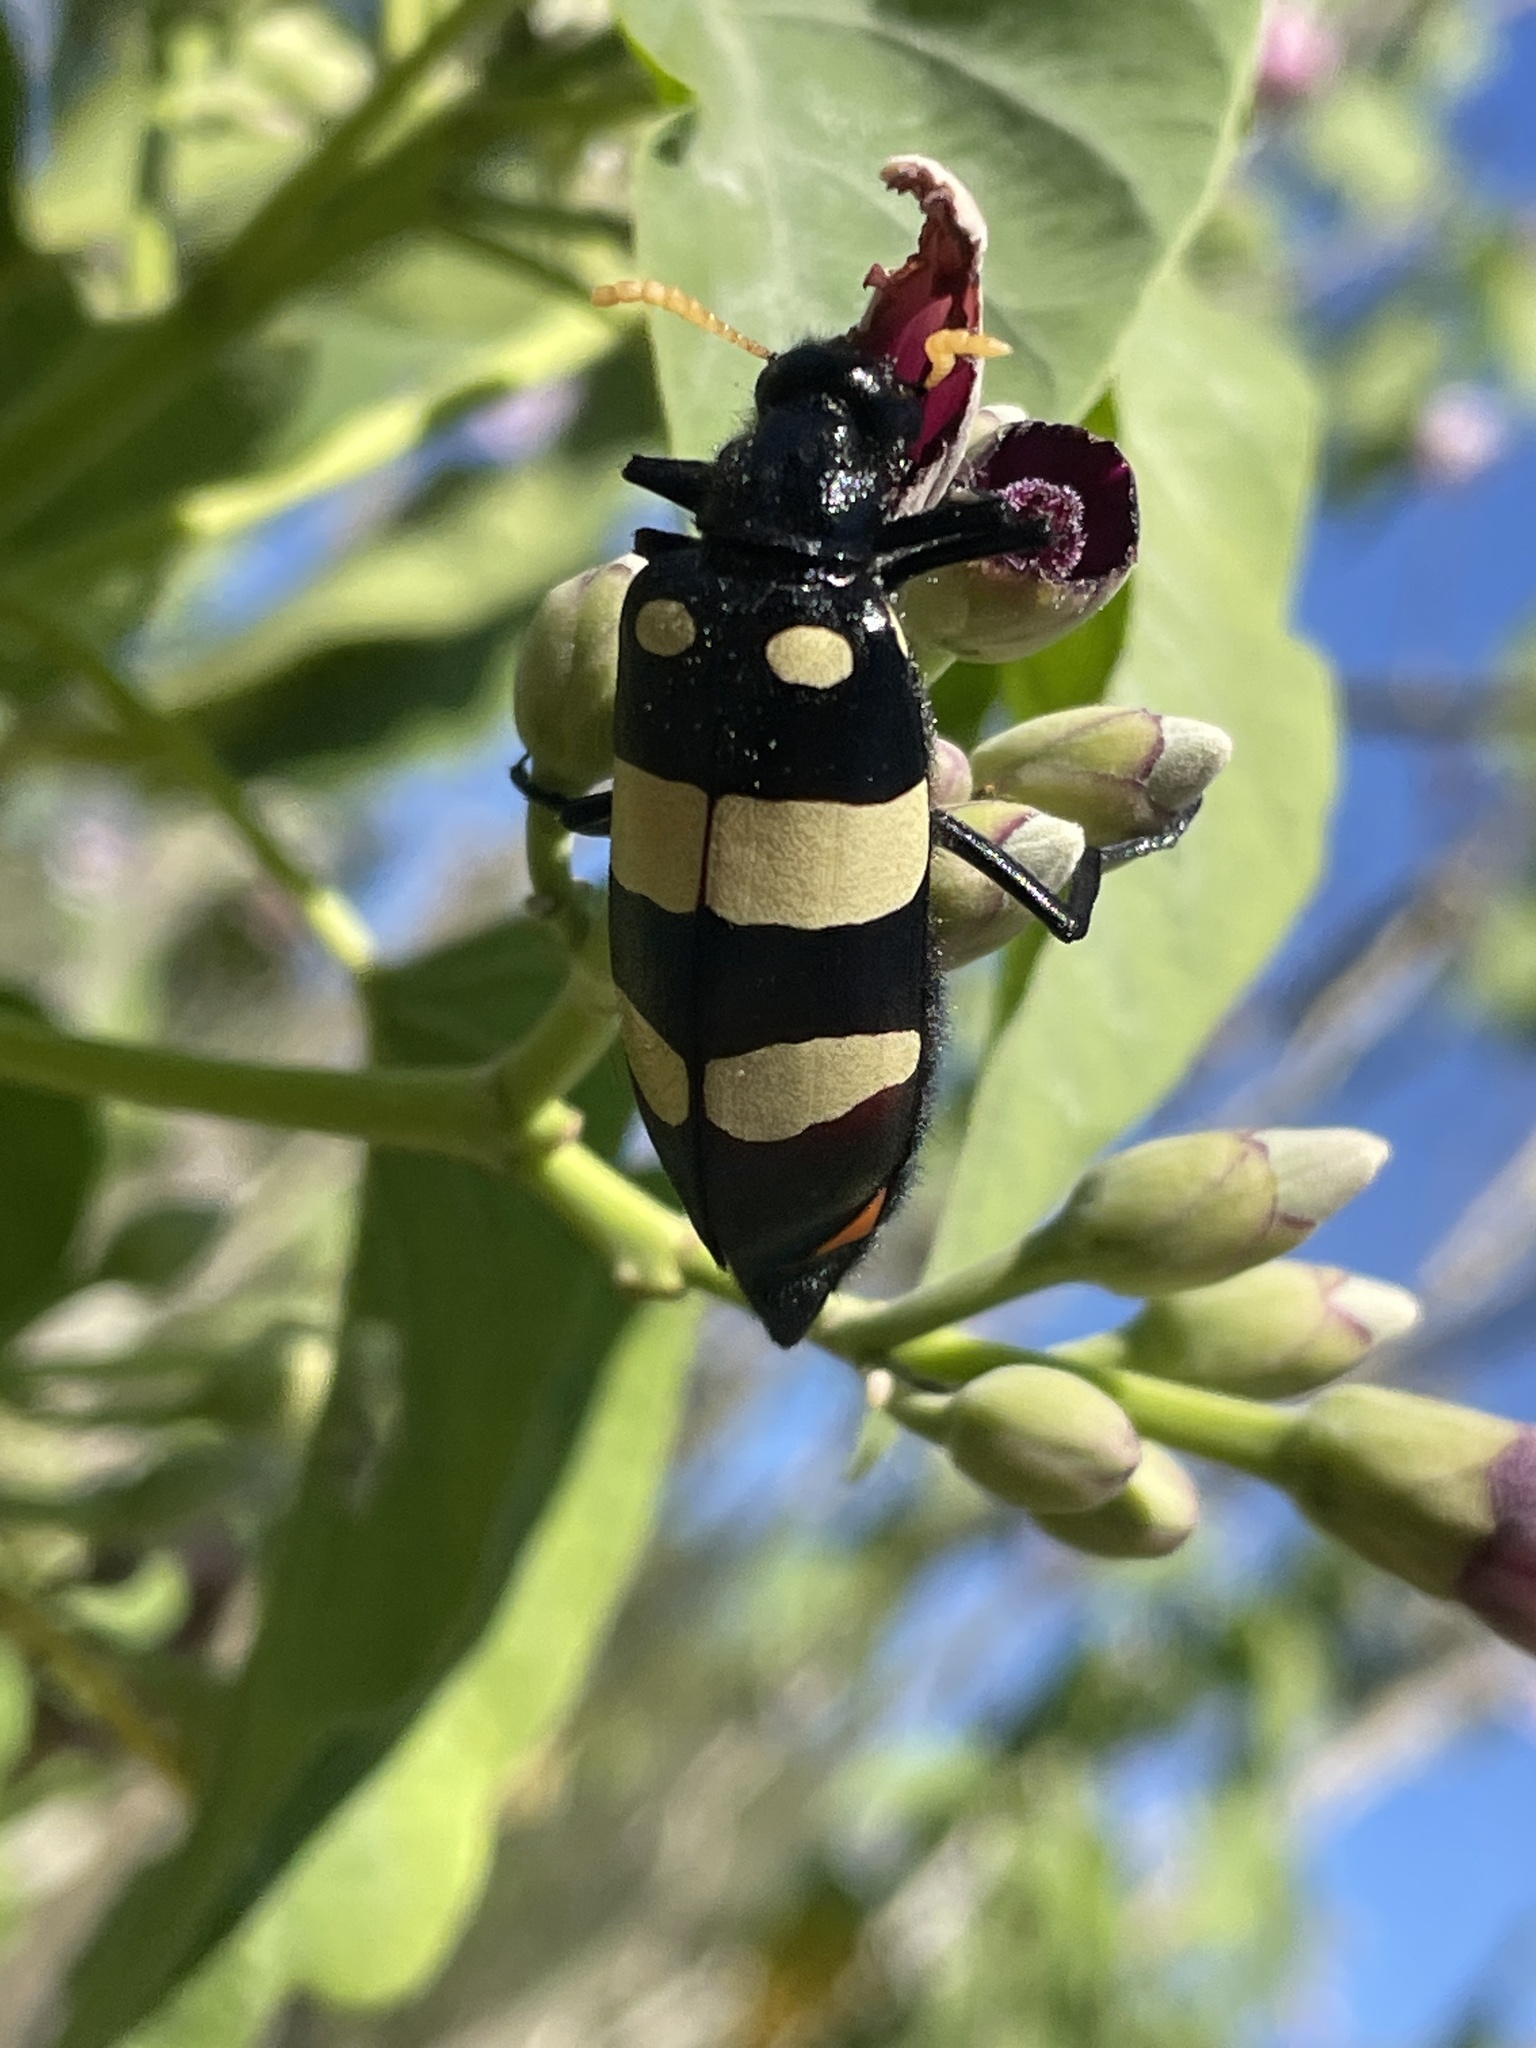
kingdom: Animalia
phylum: Arthropoda
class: Insecta
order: Coleoptera
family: Meloidae
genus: Hycleus
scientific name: Hycleus
